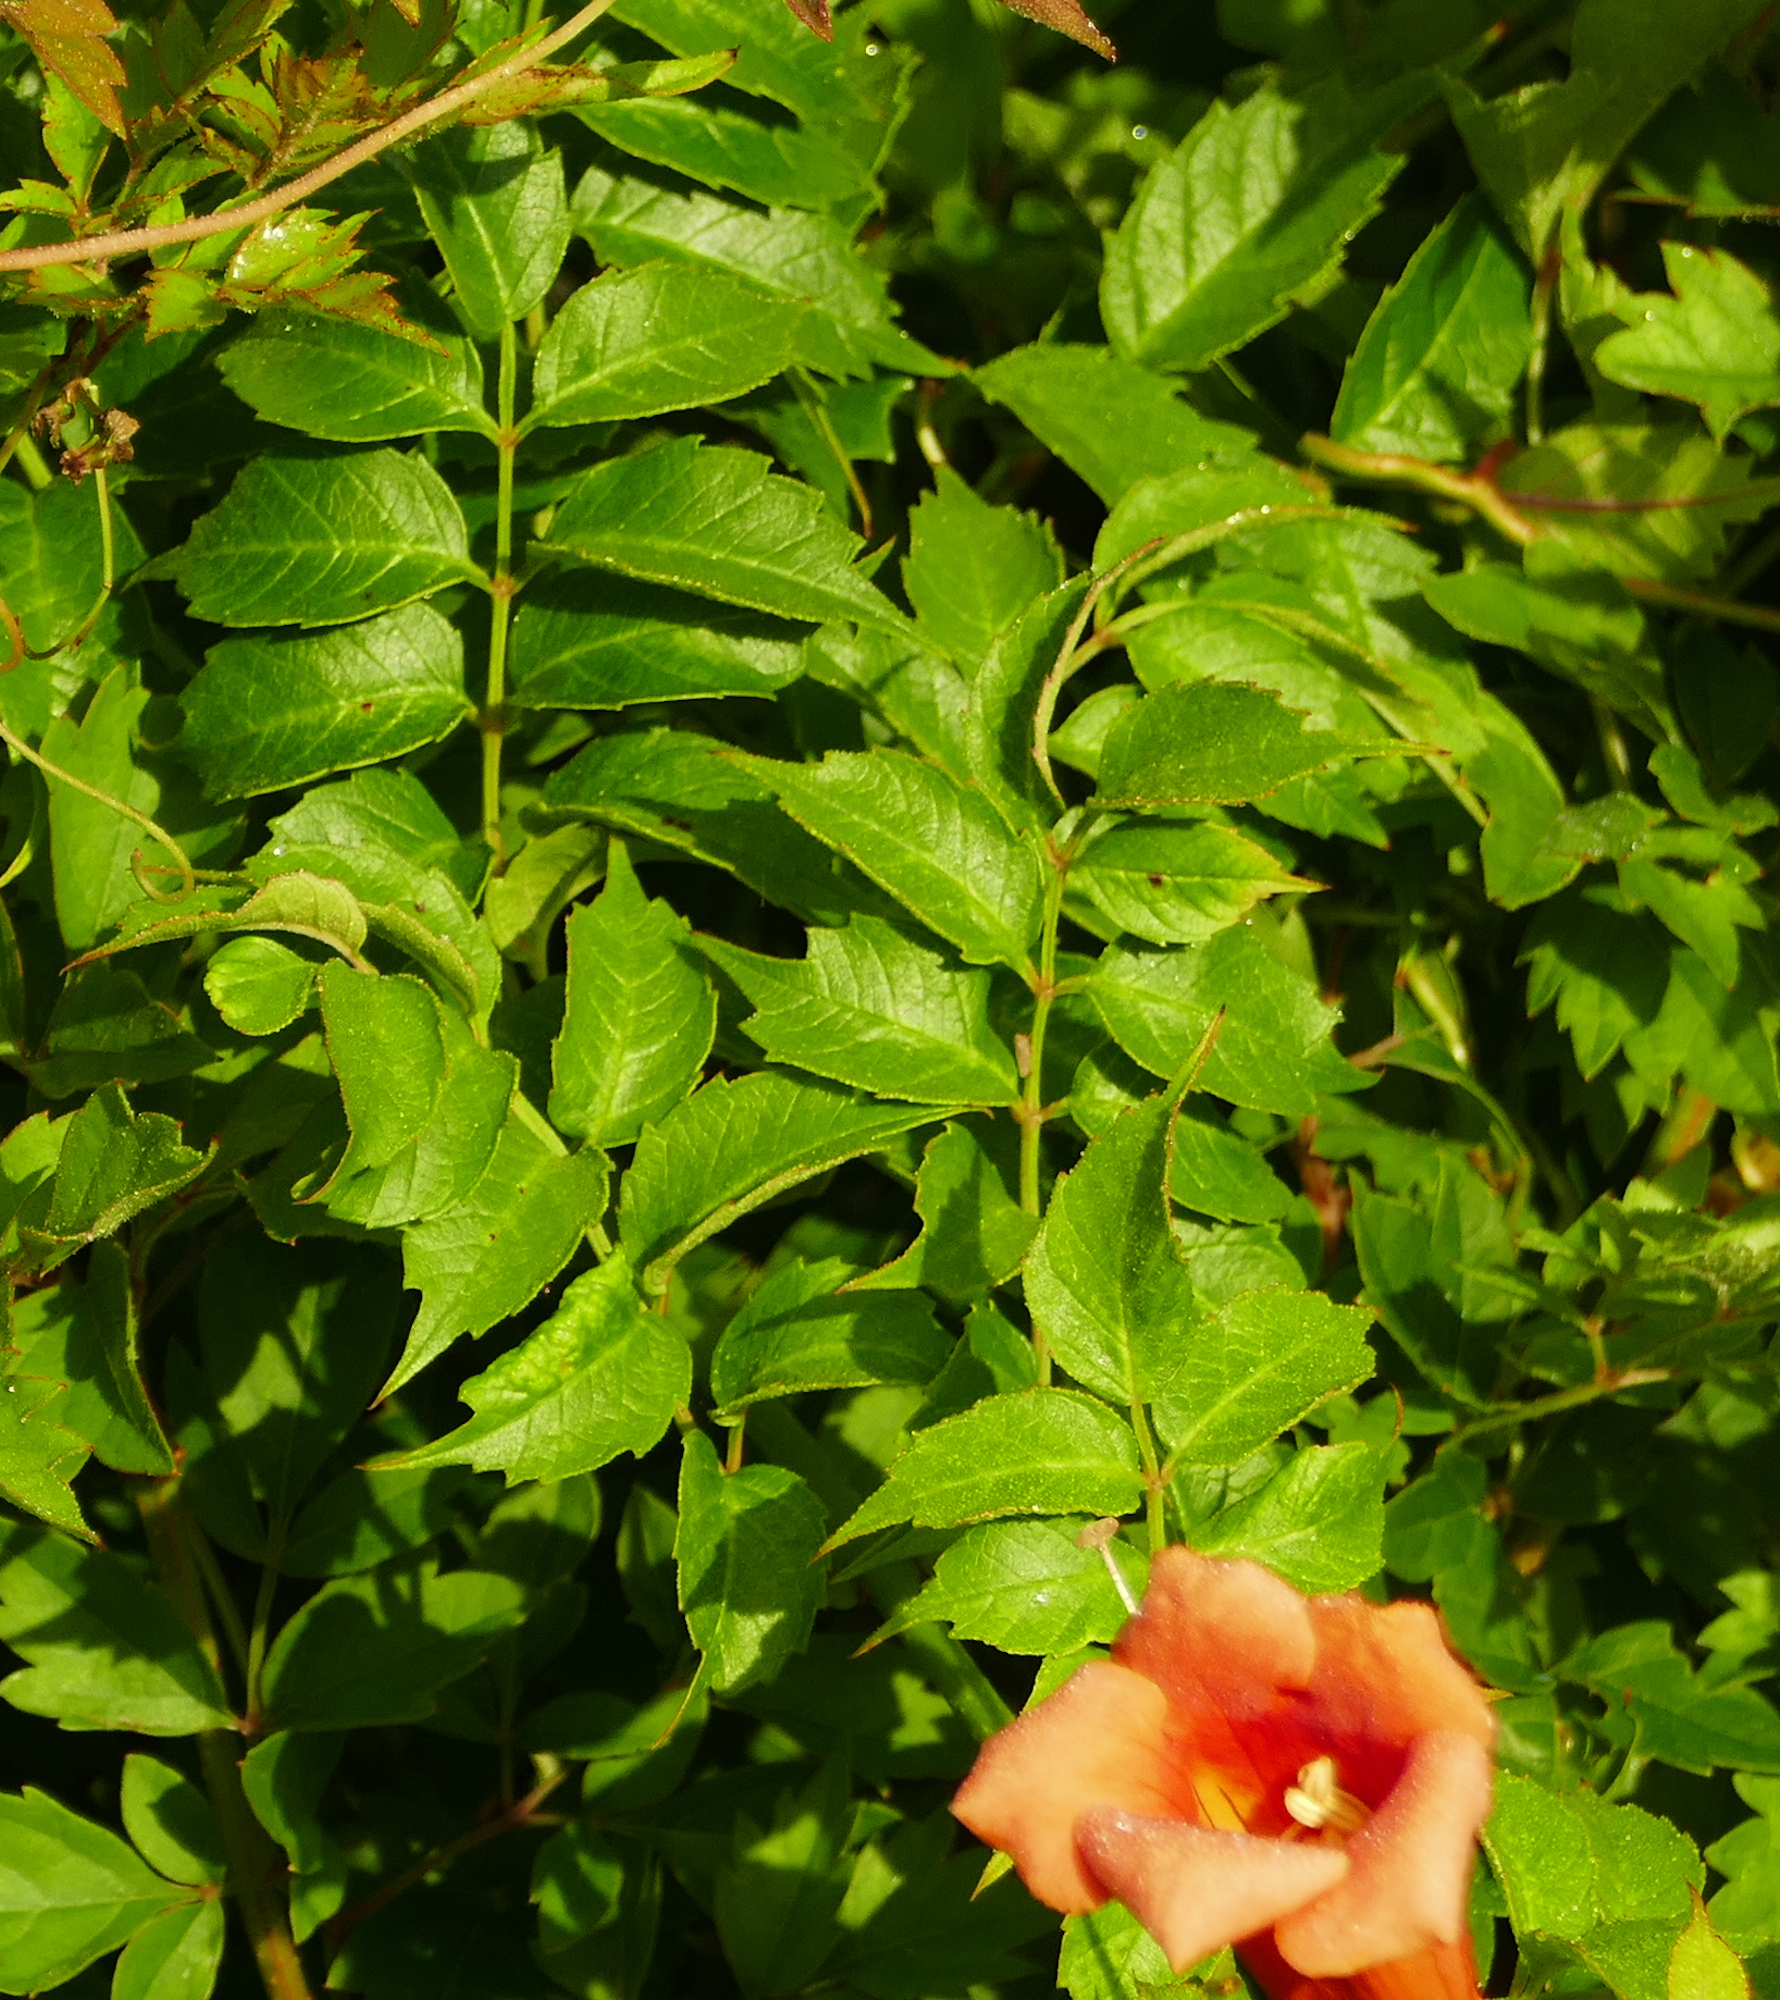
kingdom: Plantae
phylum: Tracheophyta
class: Magnoliopsida
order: Lamiales
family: Bignoniaceae
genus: Campsis
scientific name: Campsis radicans
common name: Trumpet-creeper
